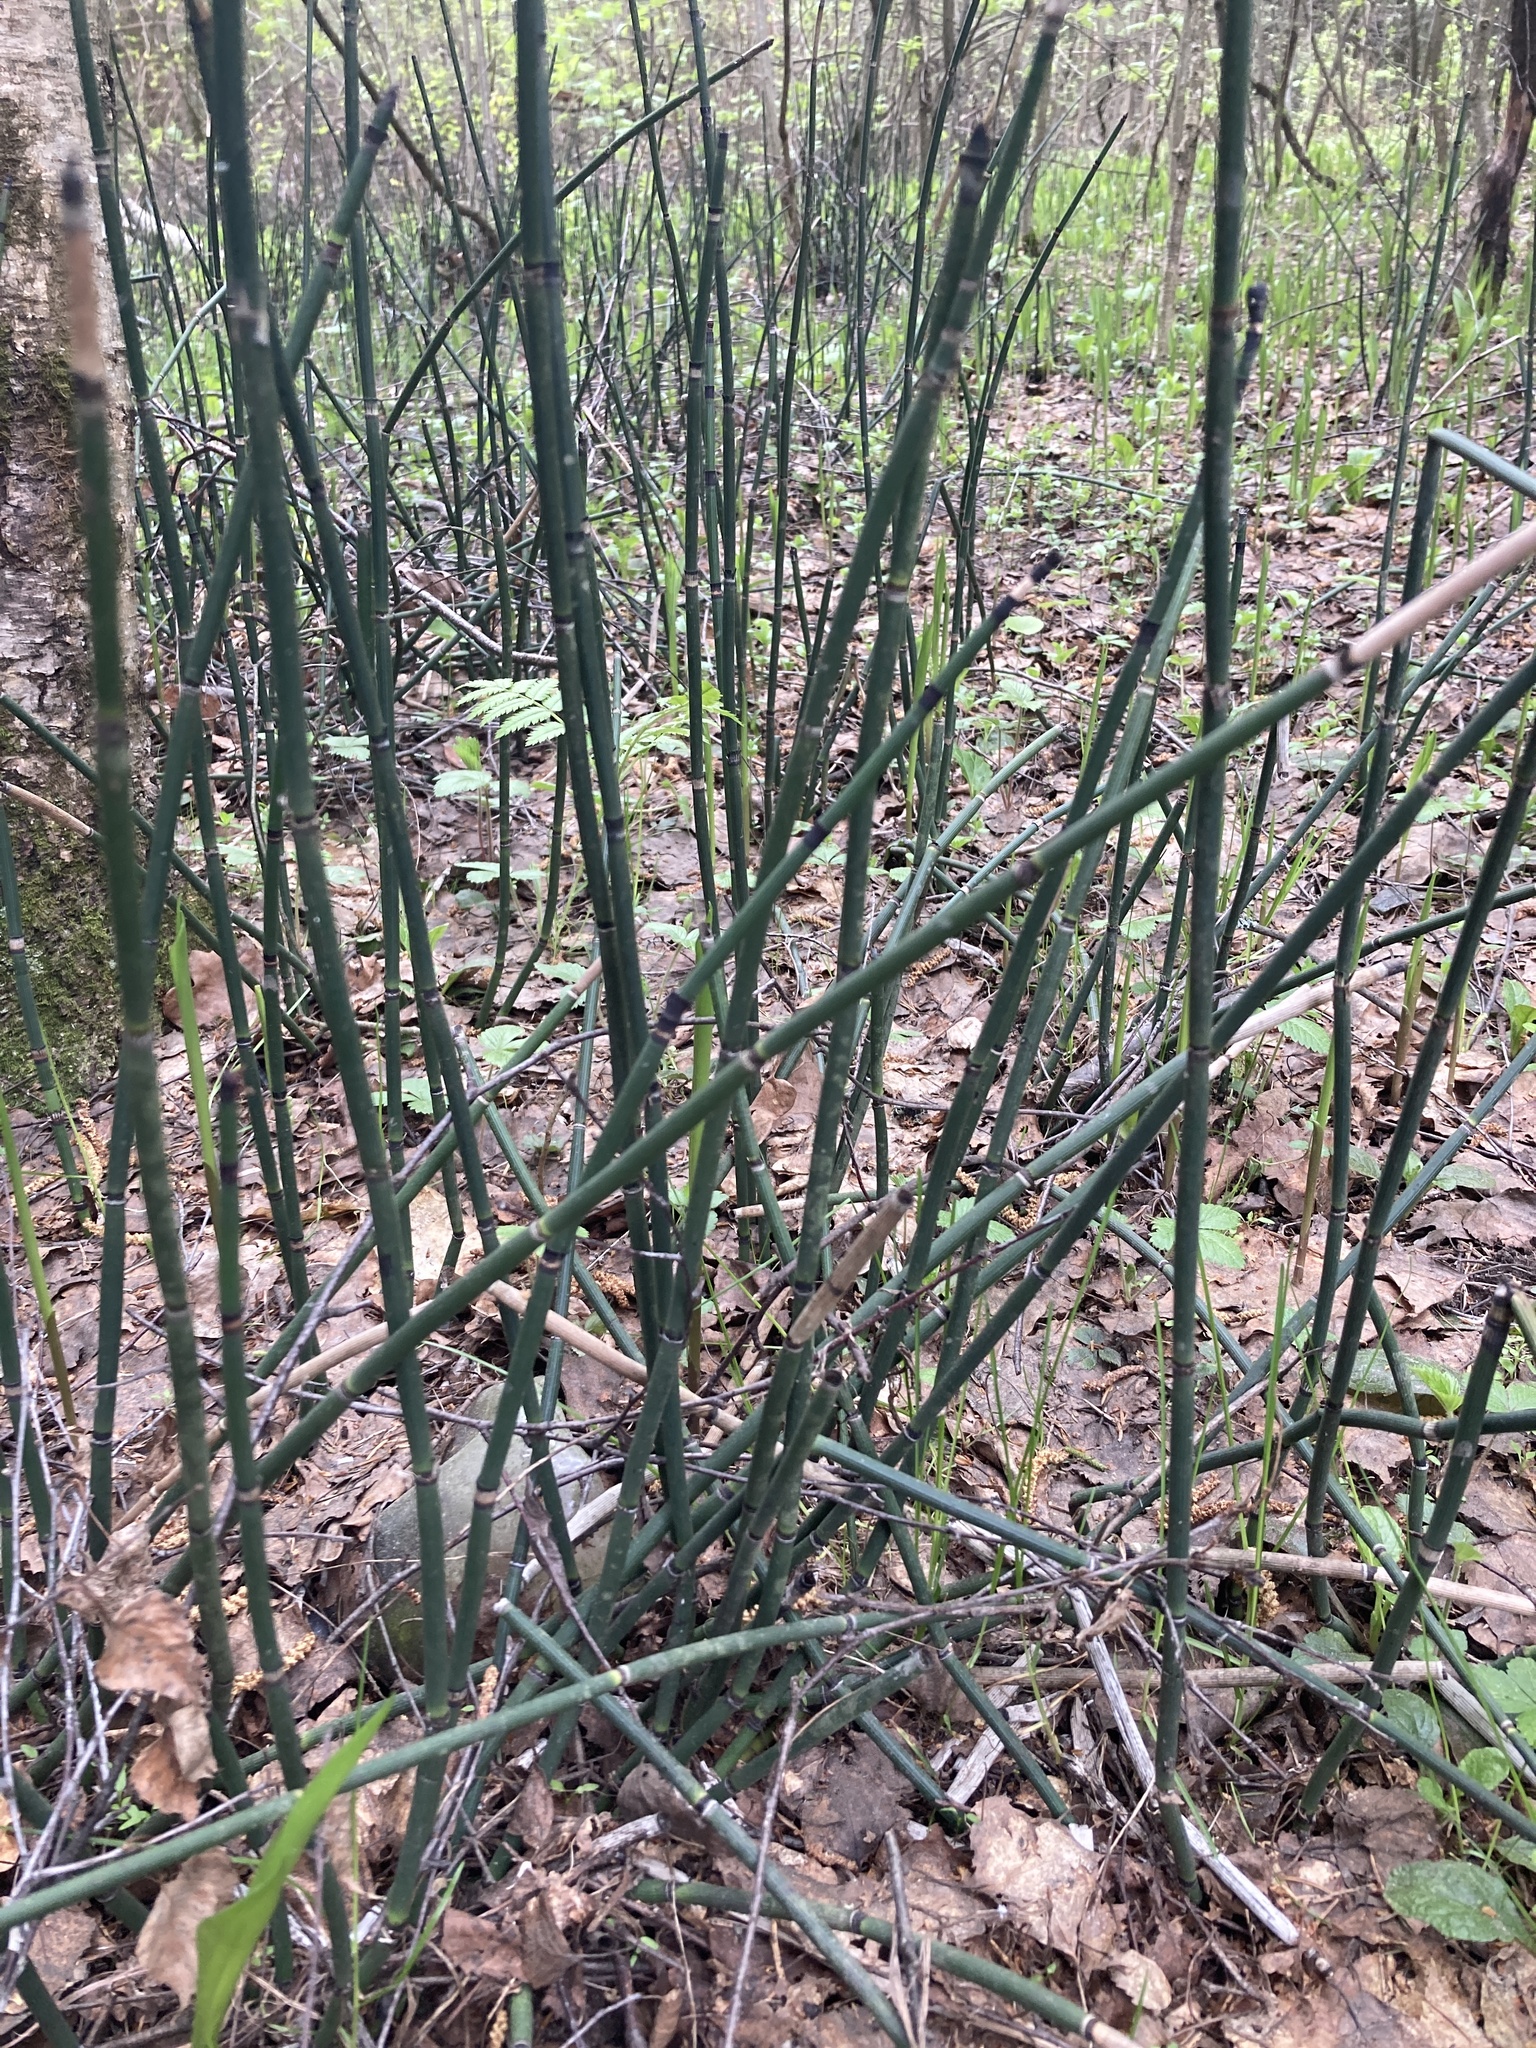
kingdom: Plantae
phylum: Tracheophyta
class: Polypodiopsida
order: Equisetales
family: Equisetaceae
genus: Equisetum
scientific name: Equisetum hyemale
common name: Rough horsetail
